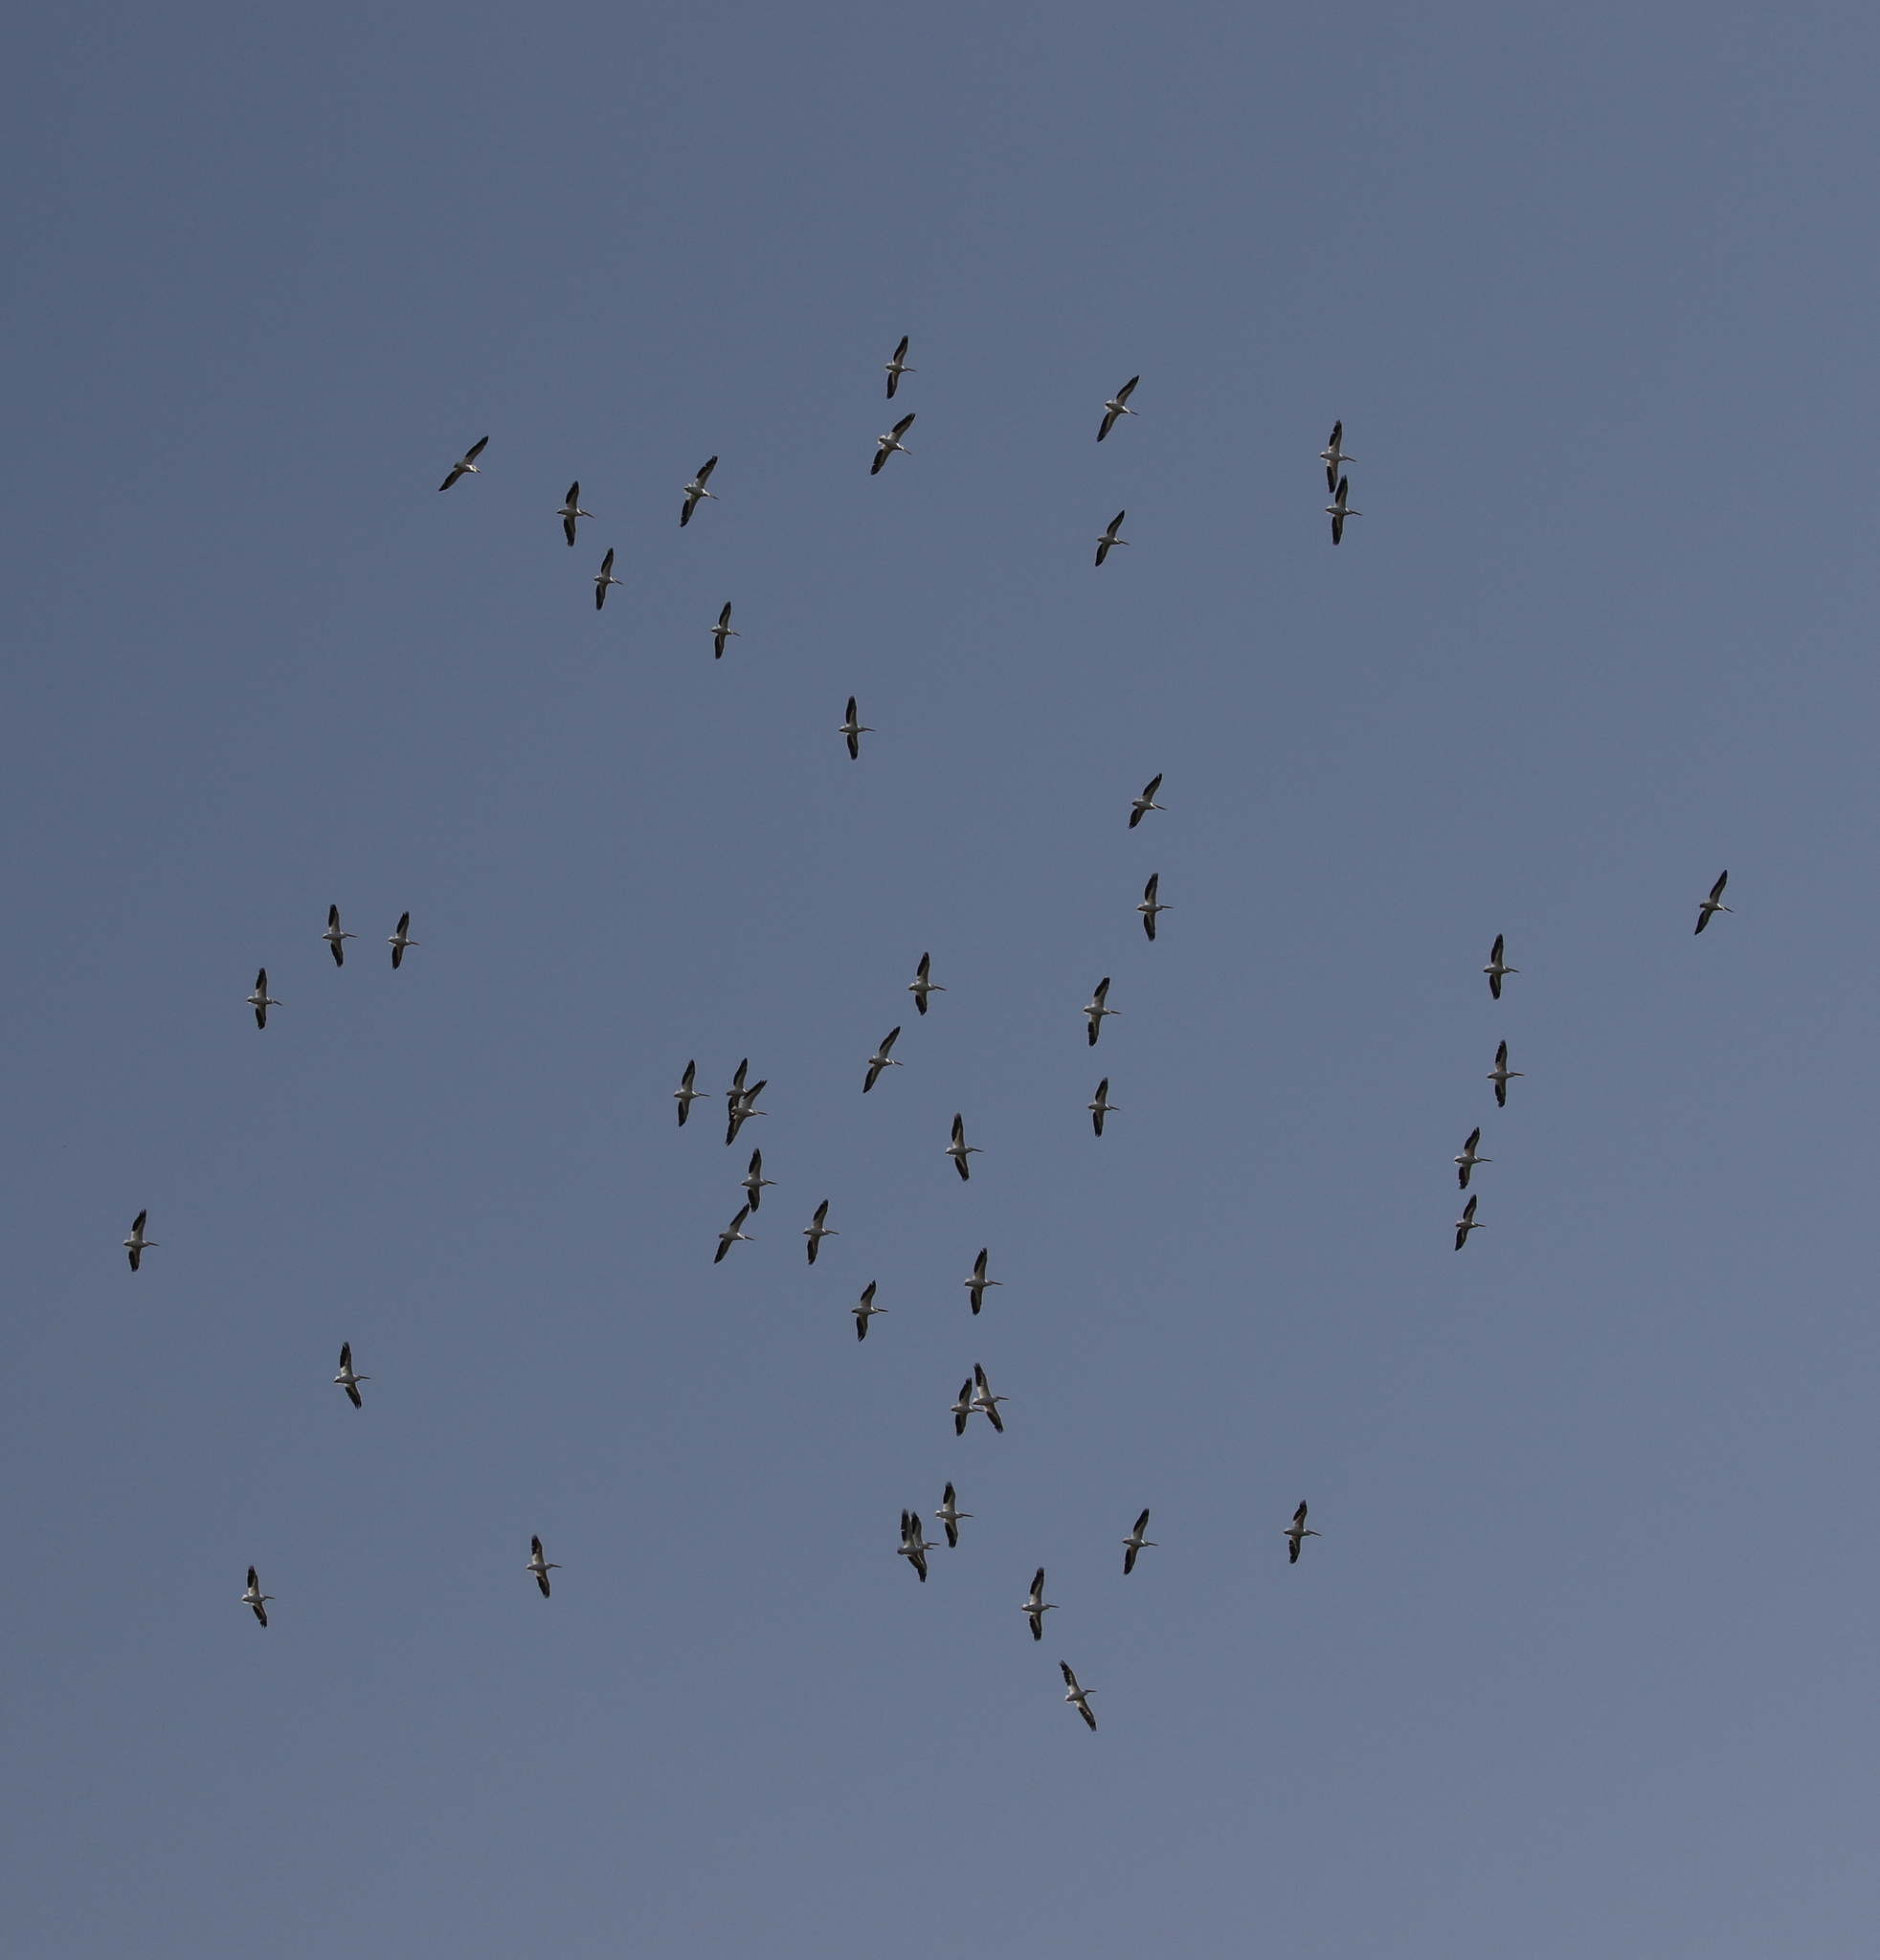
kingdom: Animalia
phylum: Chordata
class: Aves
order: Pelecaniformes
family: Pelecanidae
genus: Pelecanus
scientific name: Pelecanus erythrorhynchos
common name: American white pelican
